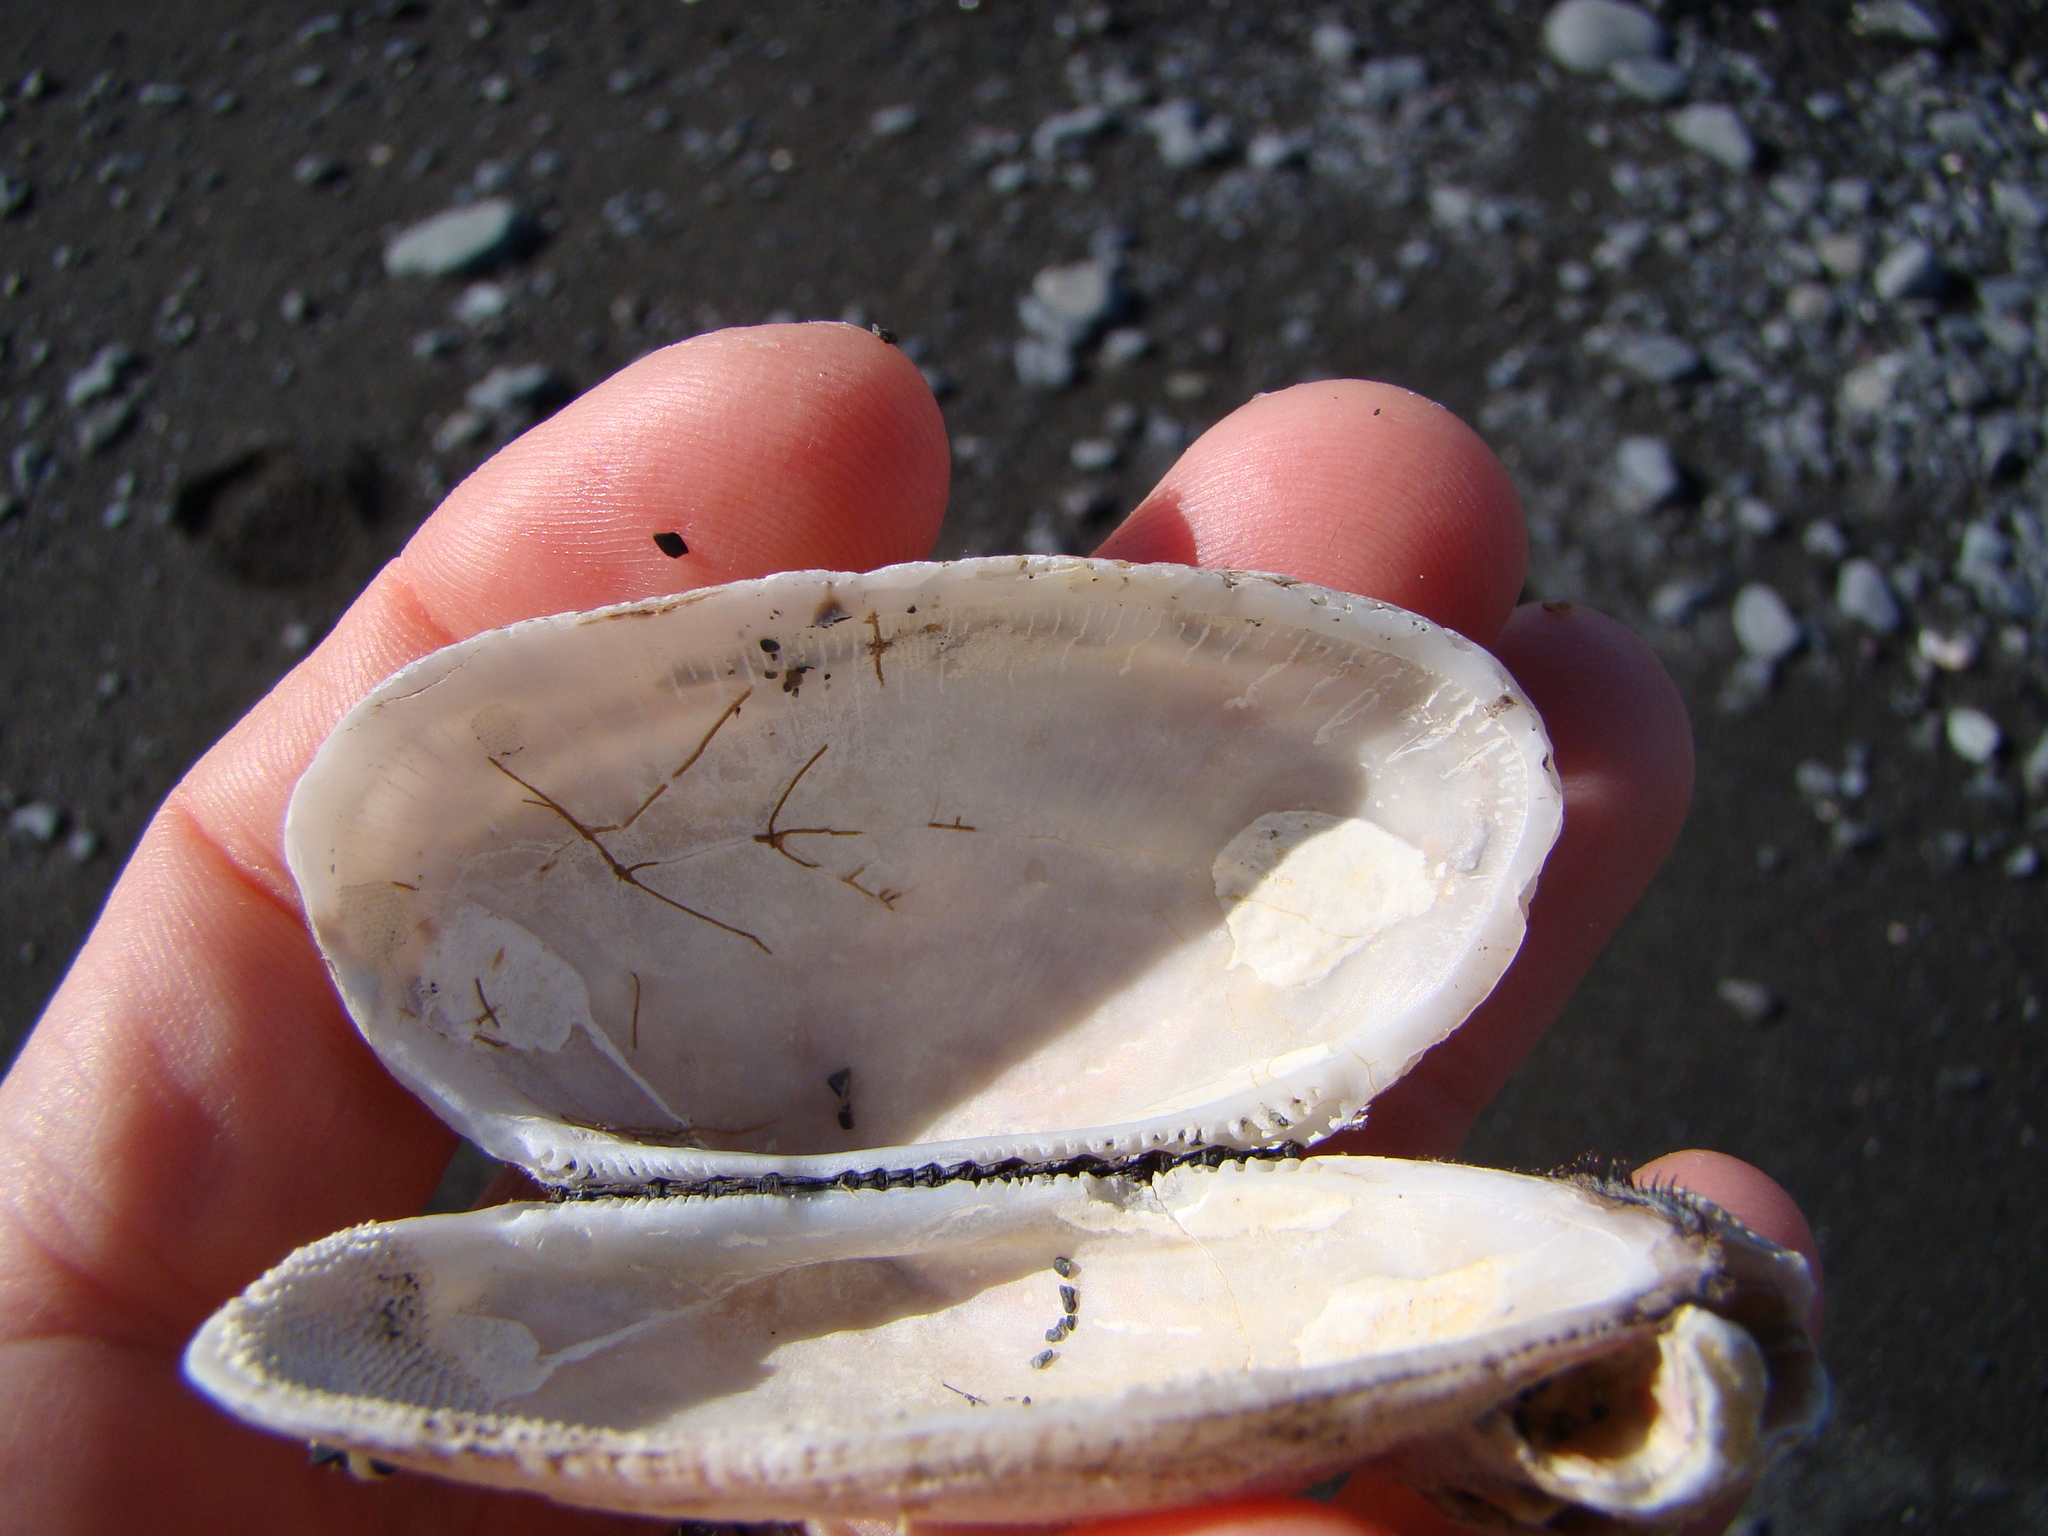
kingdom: Animalia
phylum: Mollusca
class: Bivalvia
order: Arcida
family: Arcidae
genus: Barbatia
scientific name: Barbatia novaezealandiae
